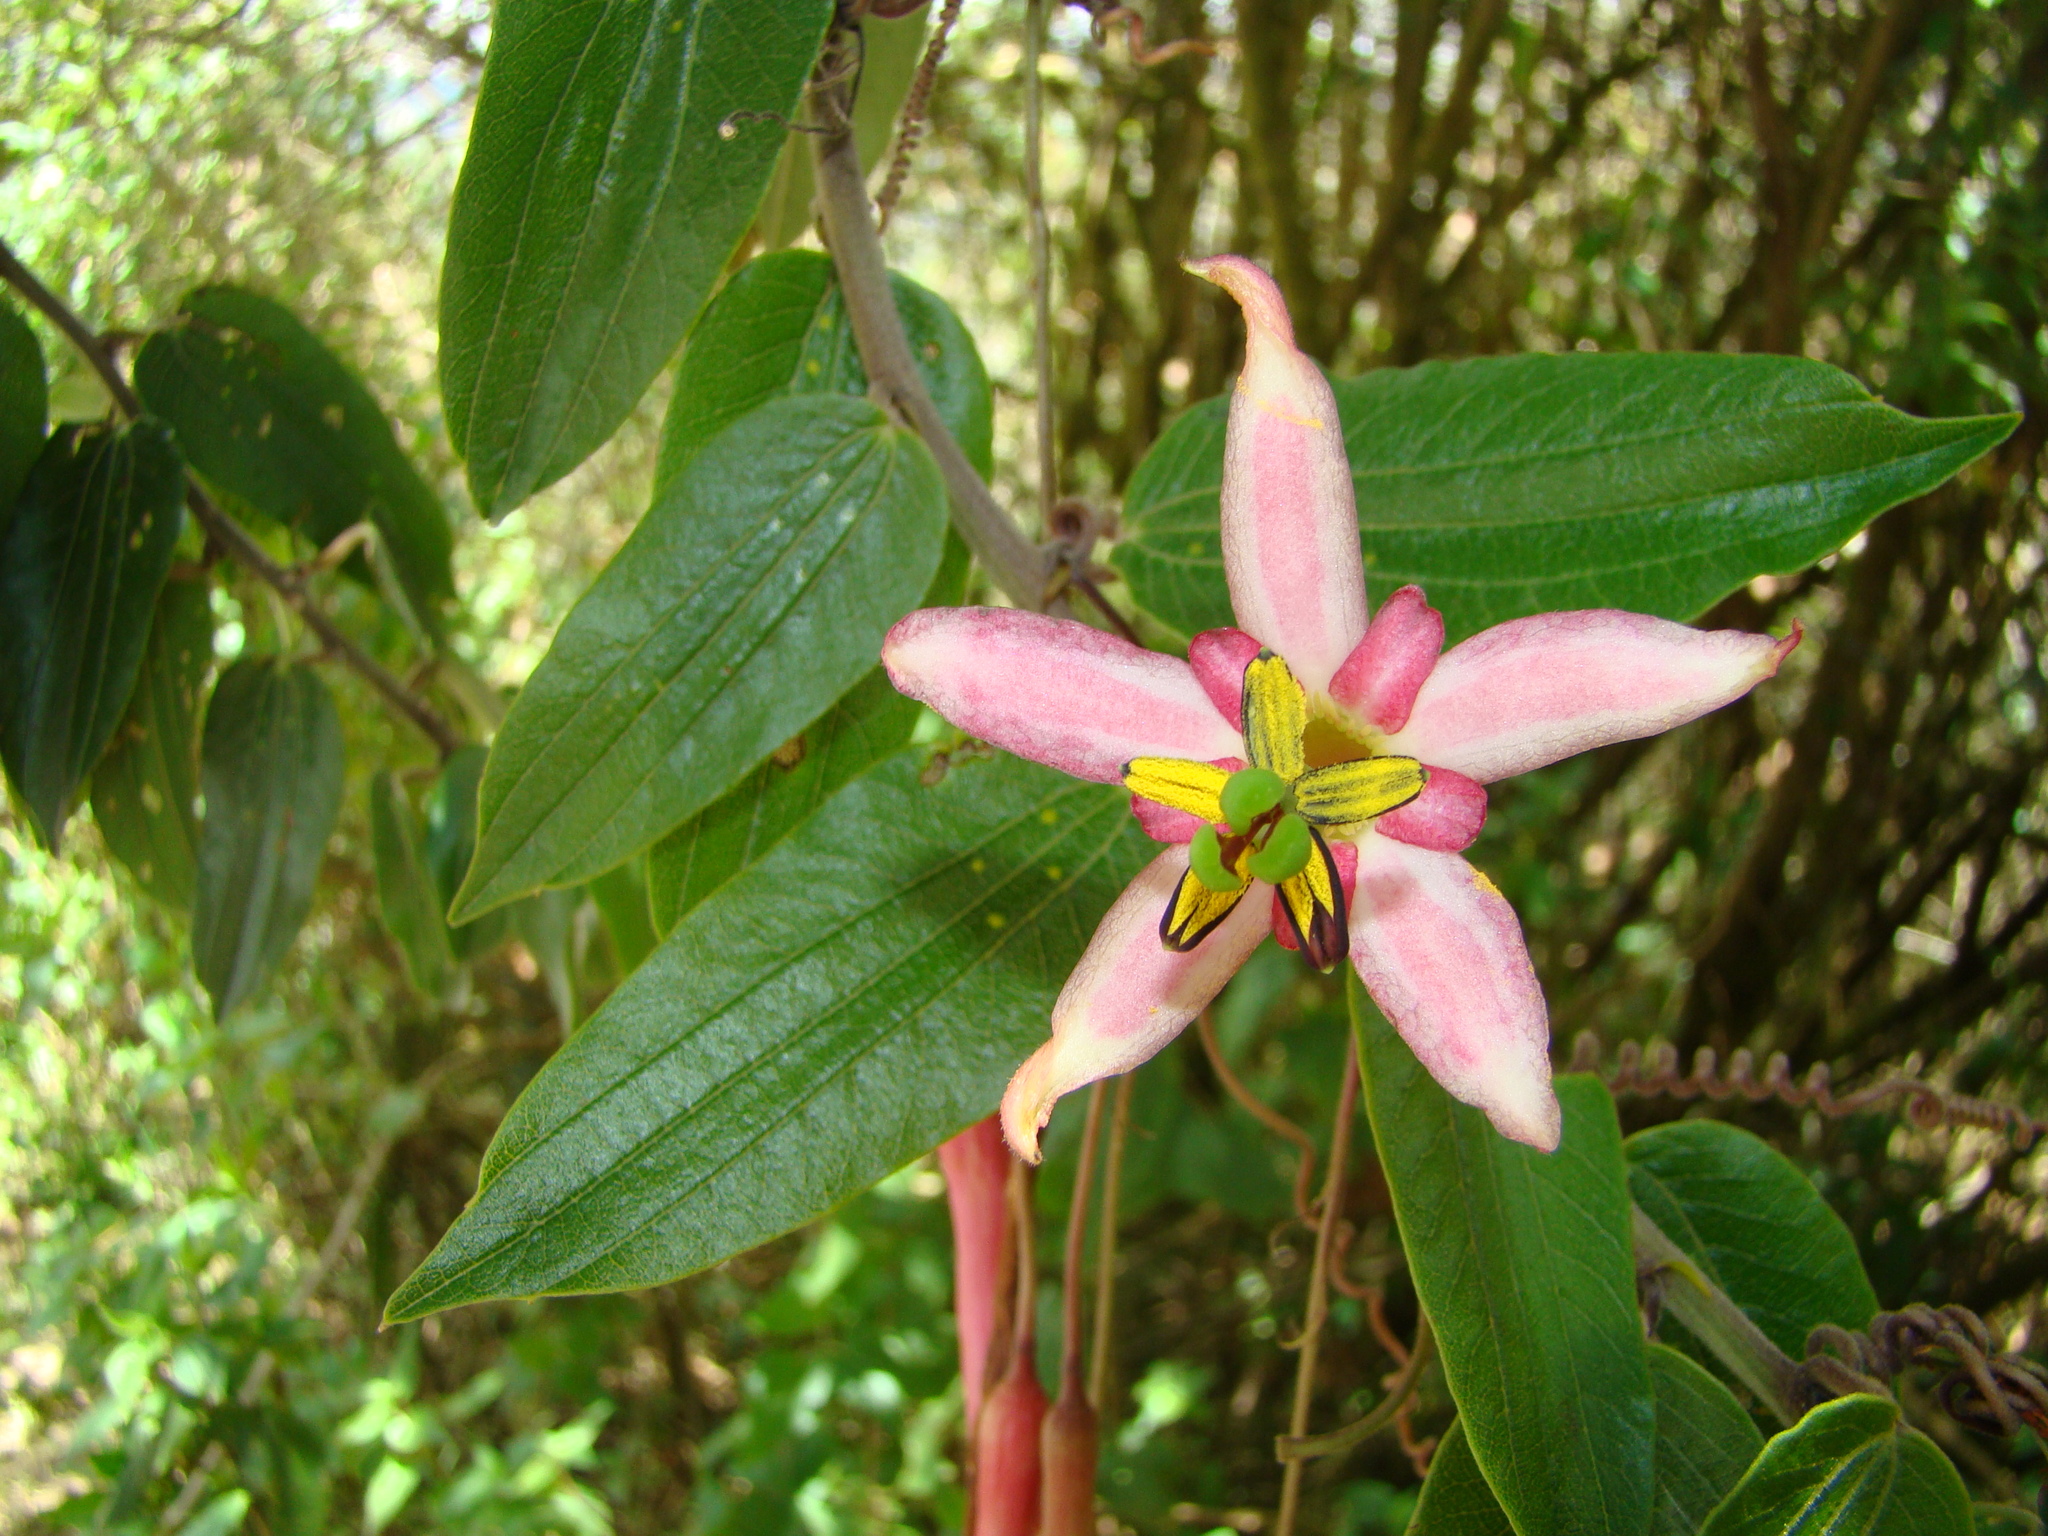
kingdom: Plantae
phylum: Tracheophyta
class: Magnoliopsida
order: Malpighiales
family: Passifloraceae
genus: Passiflora
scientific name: Passiflora trinervia
